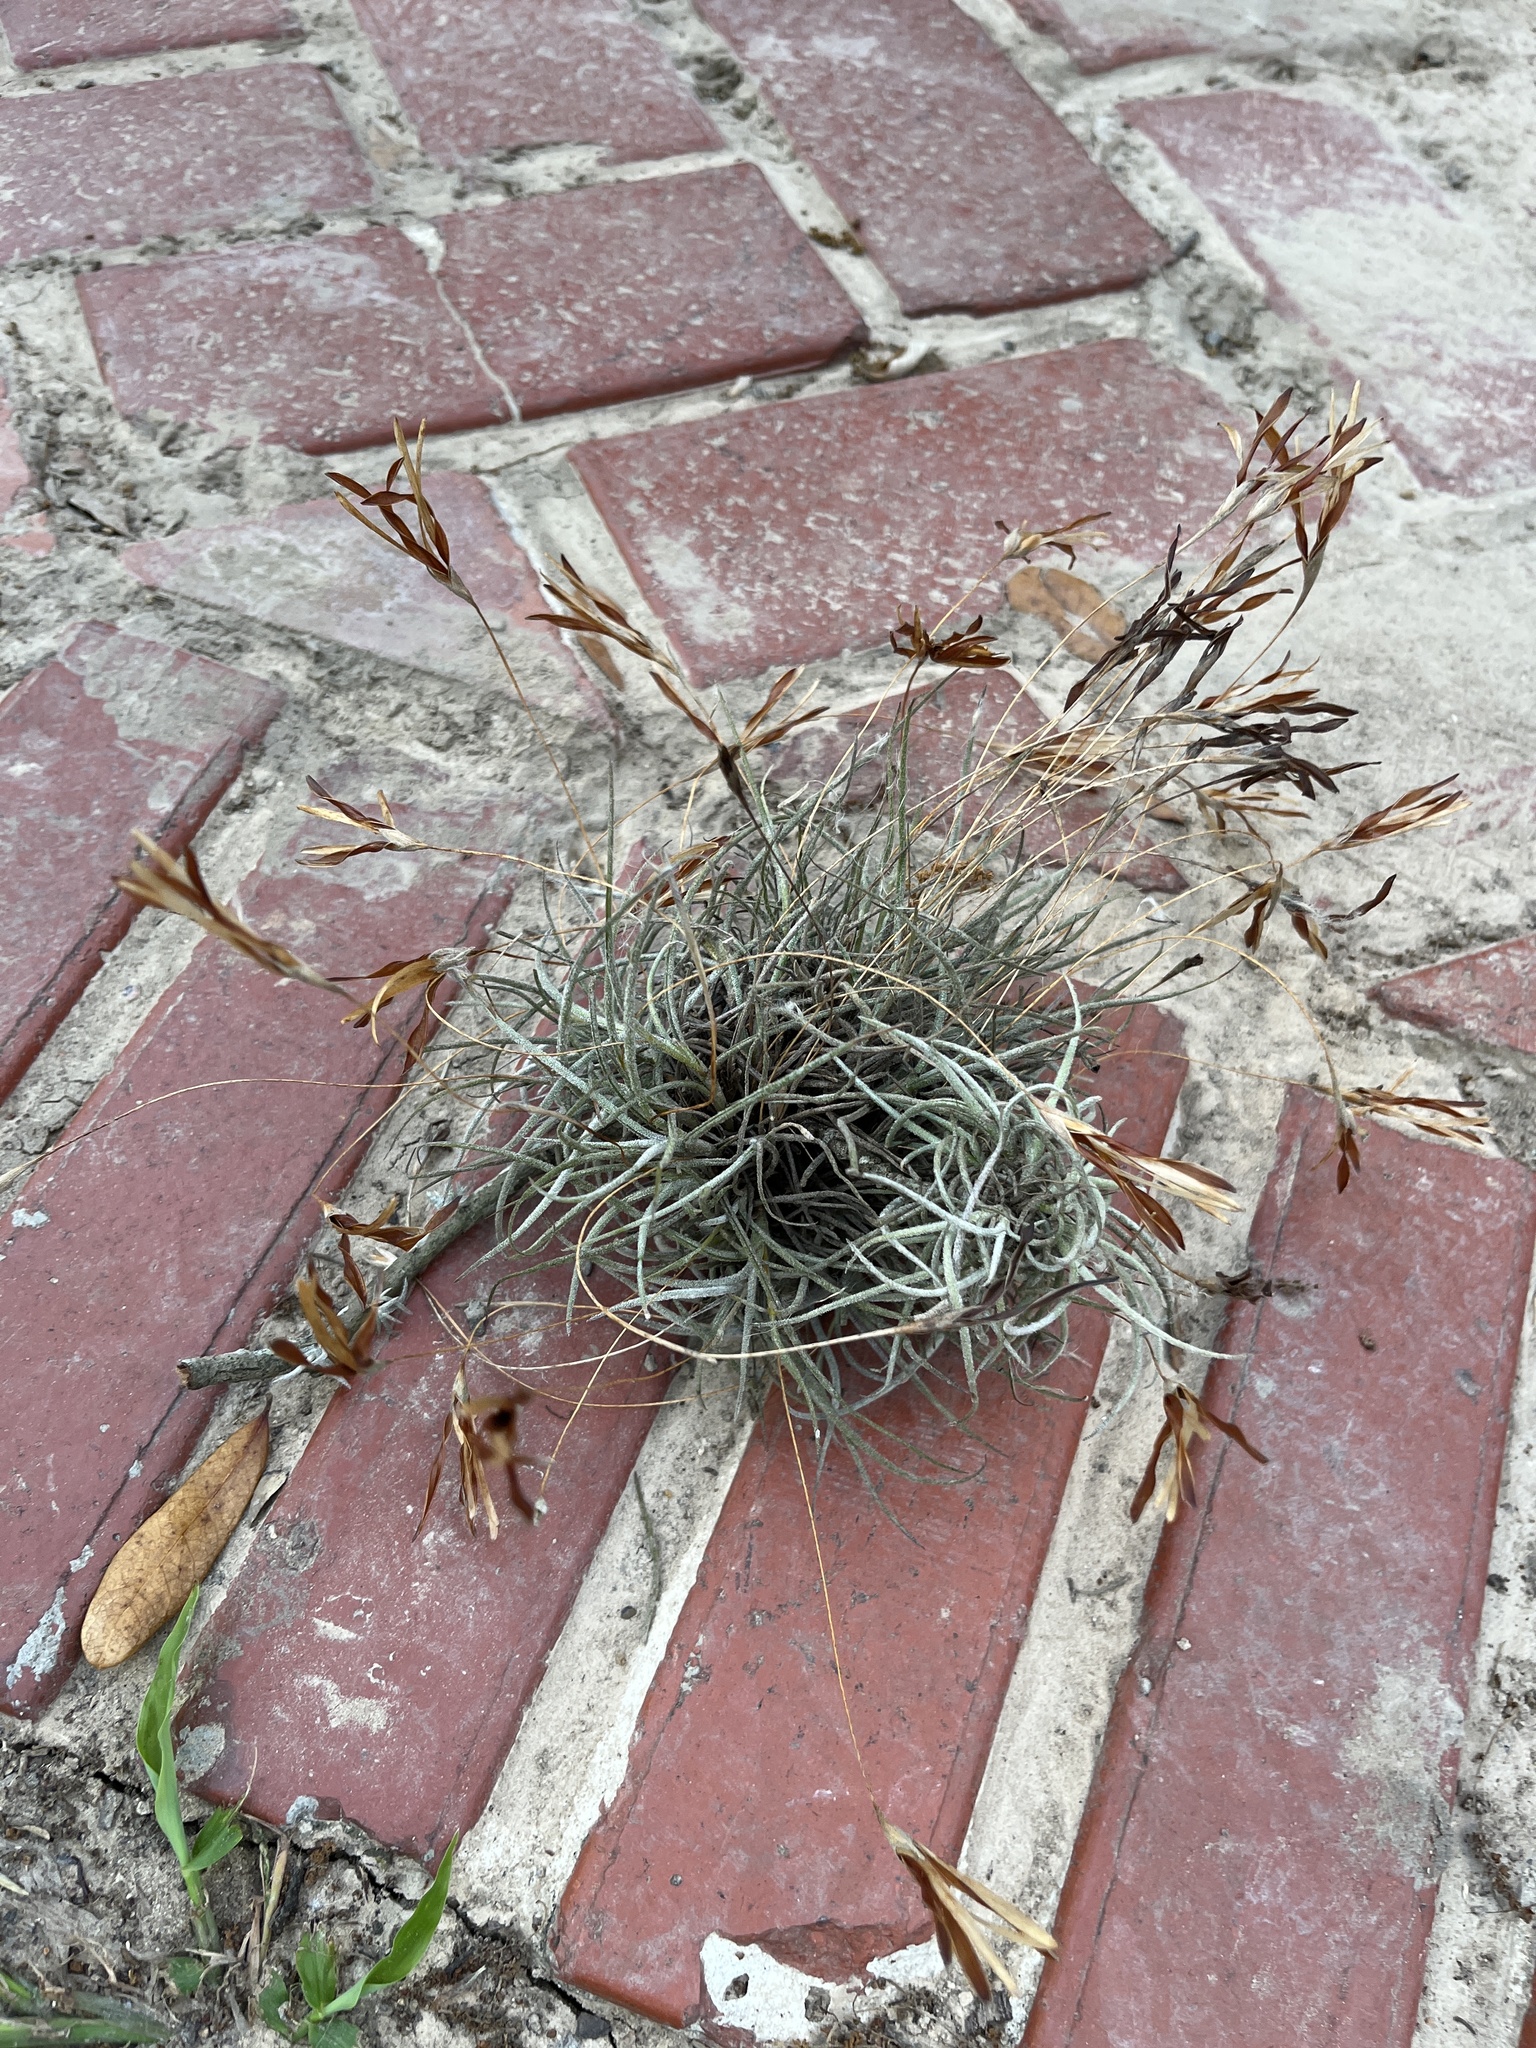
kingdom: Plantae
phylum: Tracheophyta
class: Liliopsida
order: Poales
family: Bromeliaceae
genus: Tillandsia
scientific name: Tillandsia recurvata
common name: Small ballmoss
